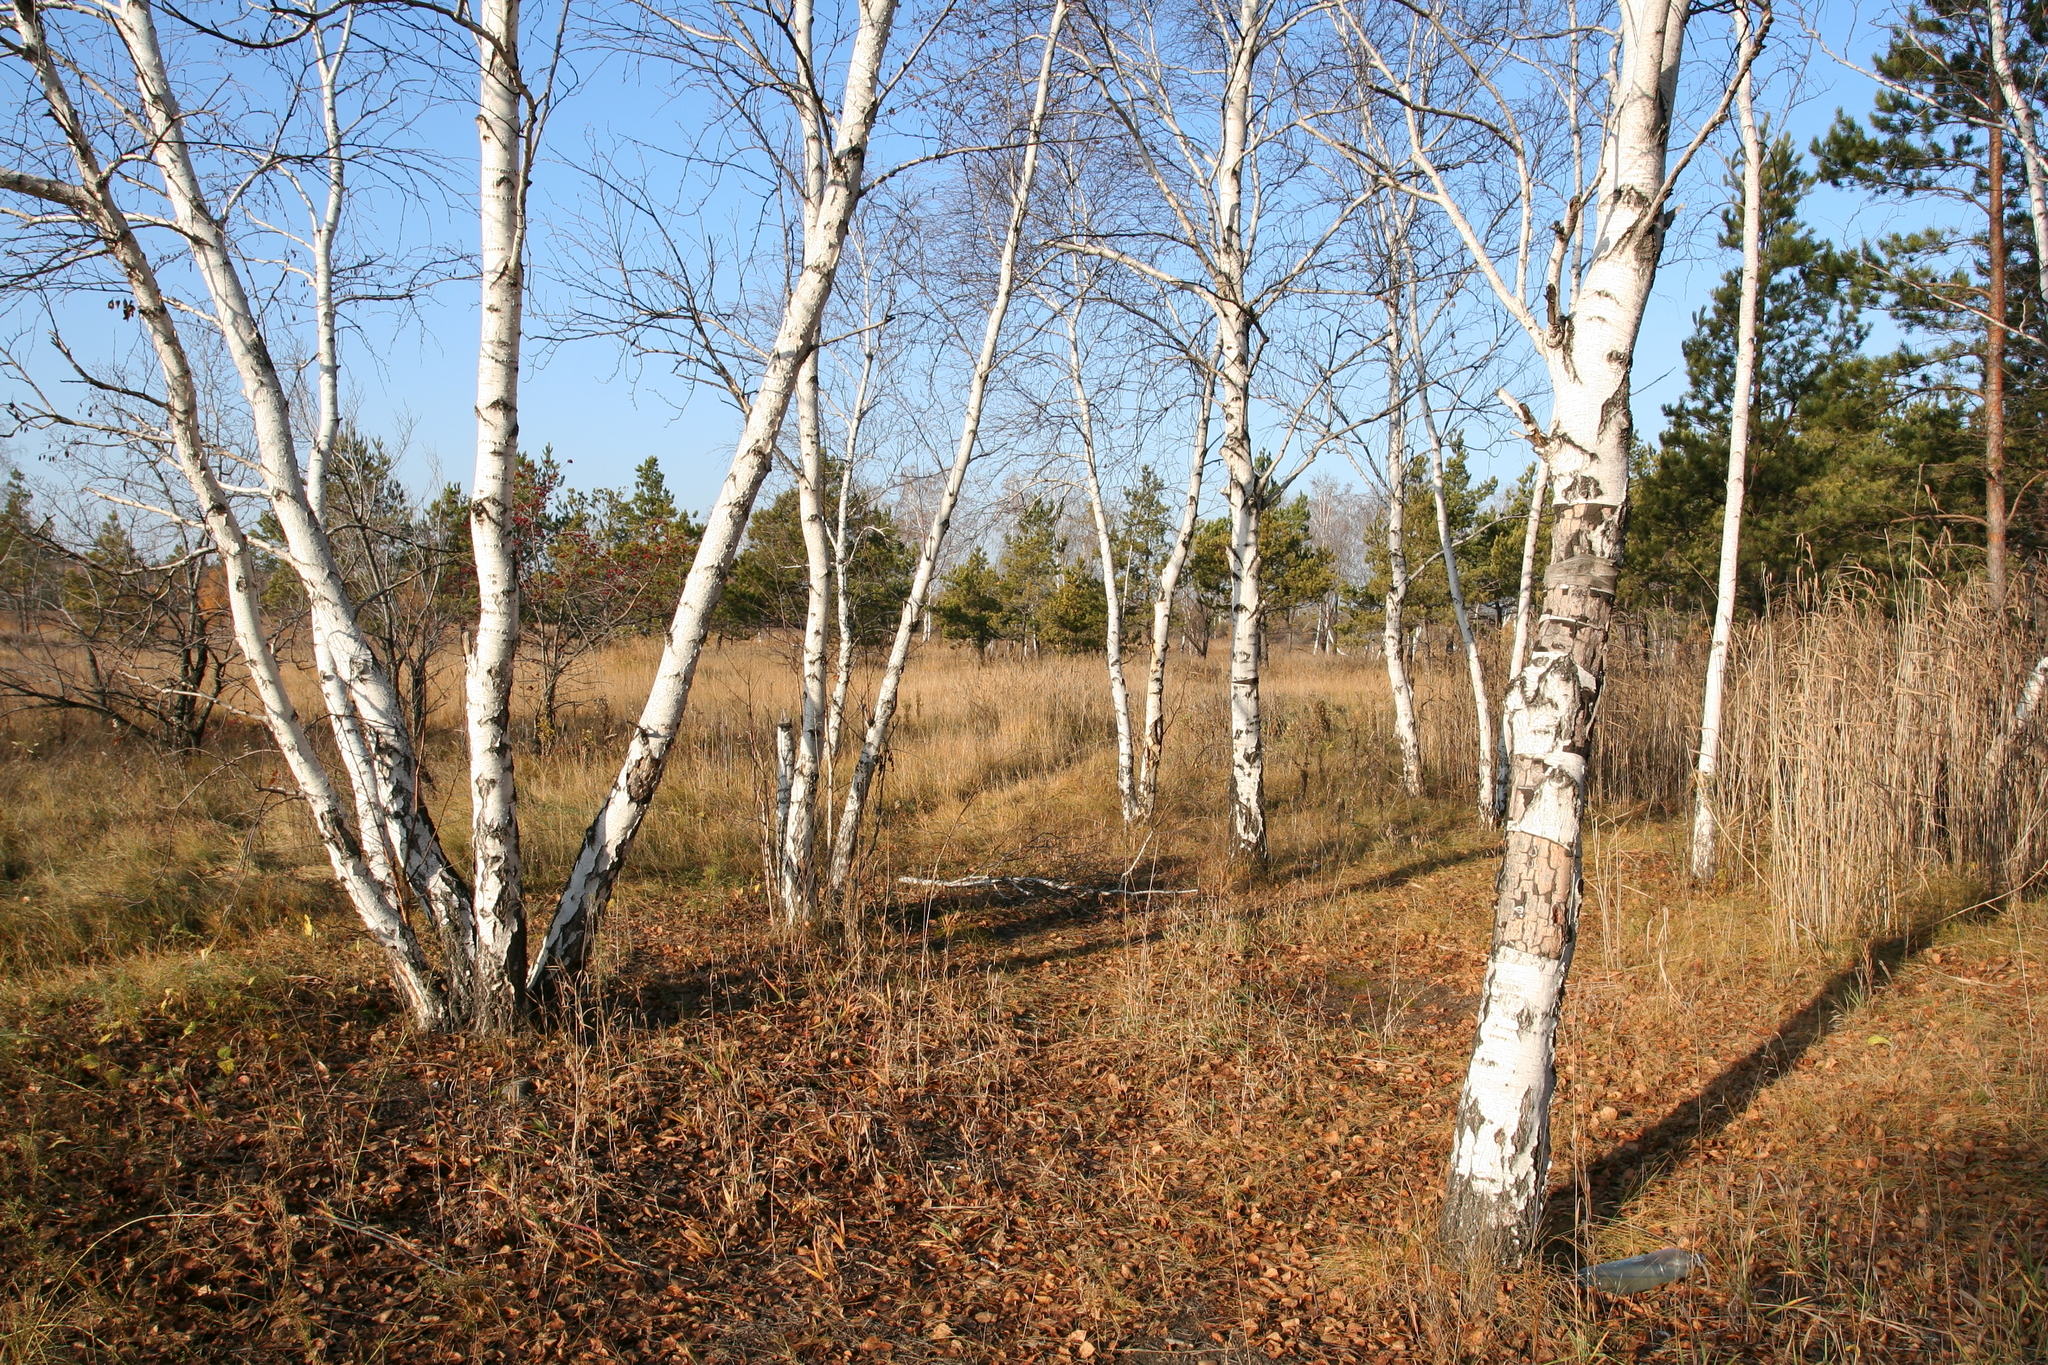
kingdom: Plantae
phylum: Tracheophyta
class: Magnoliopsida
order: Fagales
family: Betulaceae
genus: Betula
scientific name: Betula pendula
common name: Silver birch
